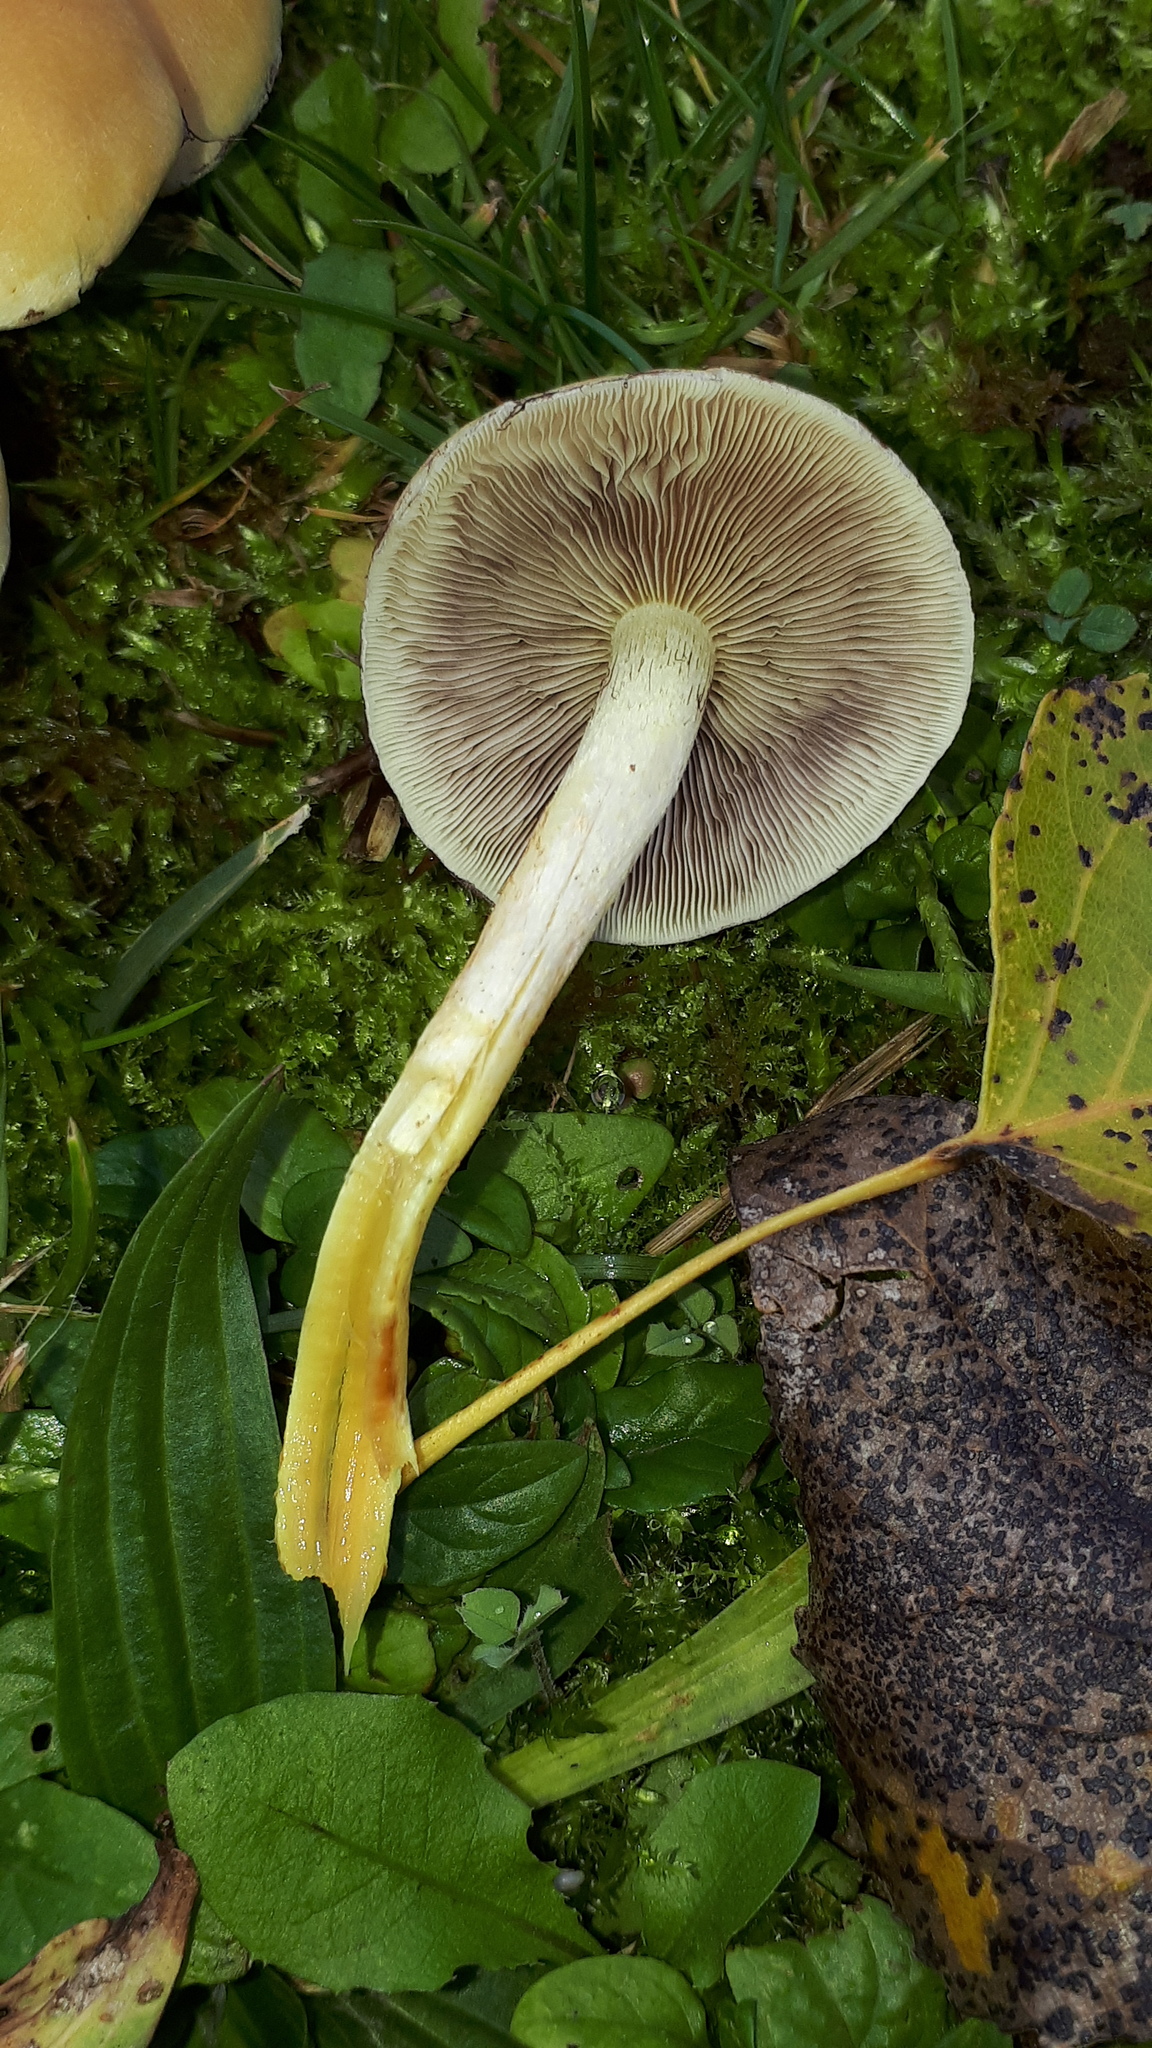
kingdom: Fungi
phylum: Basidiomycota
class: Agaricomycetes
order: Agaricales
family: Strophariaceae
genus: Hypholoma
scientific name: Hypholoma fasciculare
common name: Sulphur tuft
